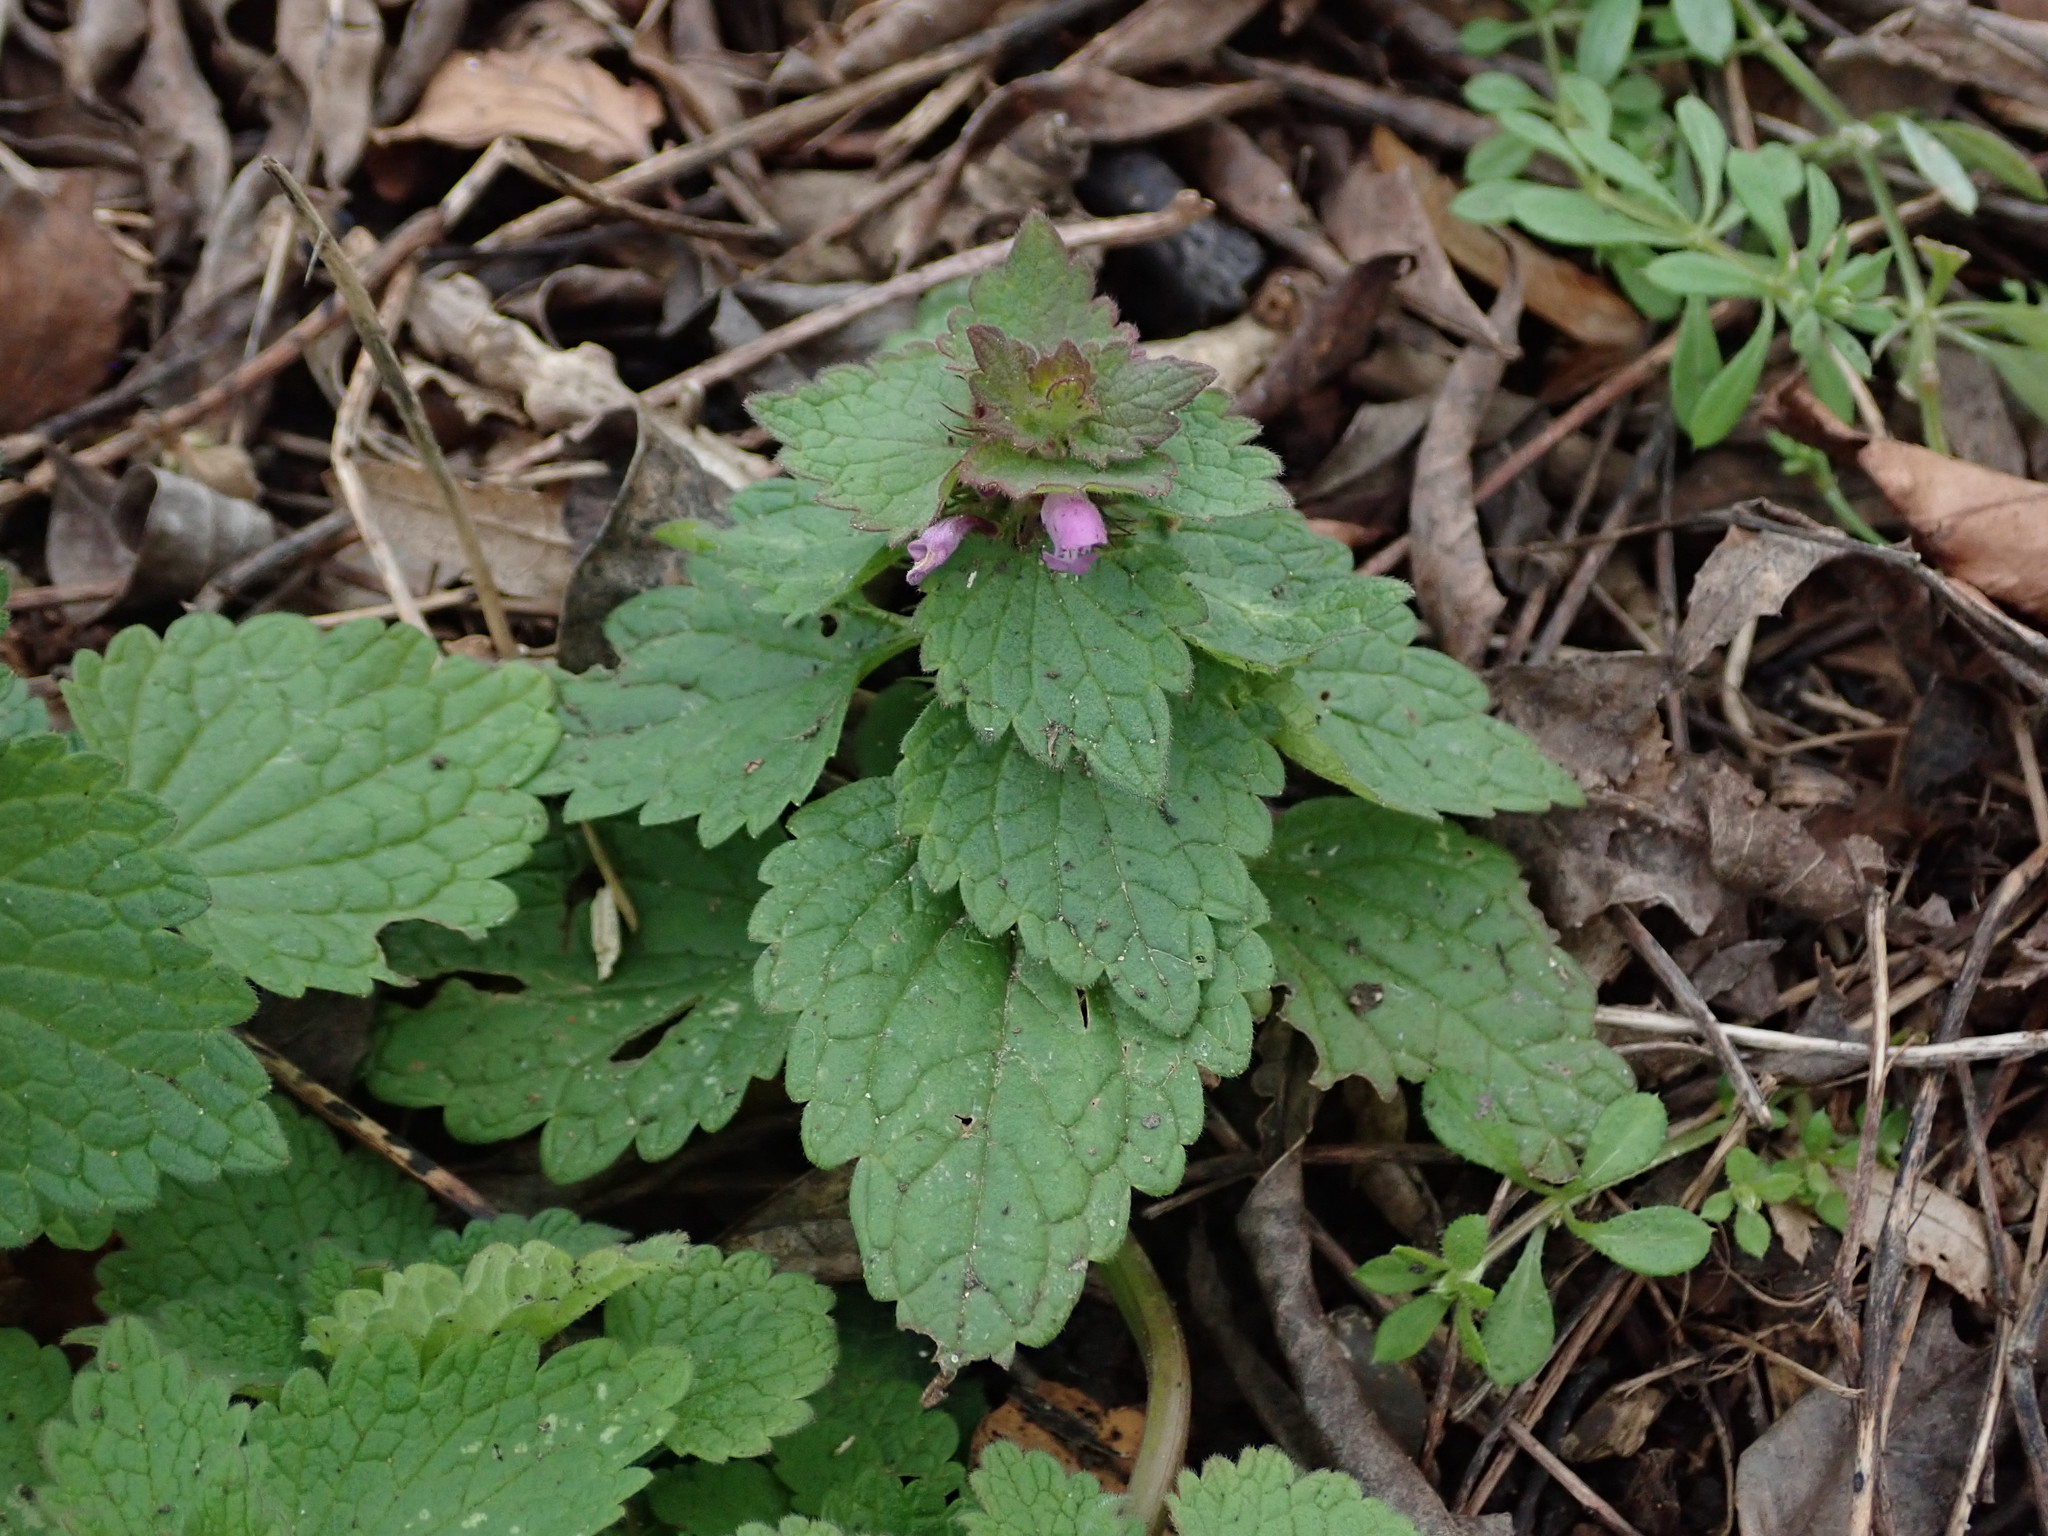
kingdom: Plantae
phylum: Tracheophyta
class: Magnoliopsida
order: Lamiales
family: Lamiaceae
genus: Lamium
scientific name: Lamium purpureum
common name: Red dead-nettle
